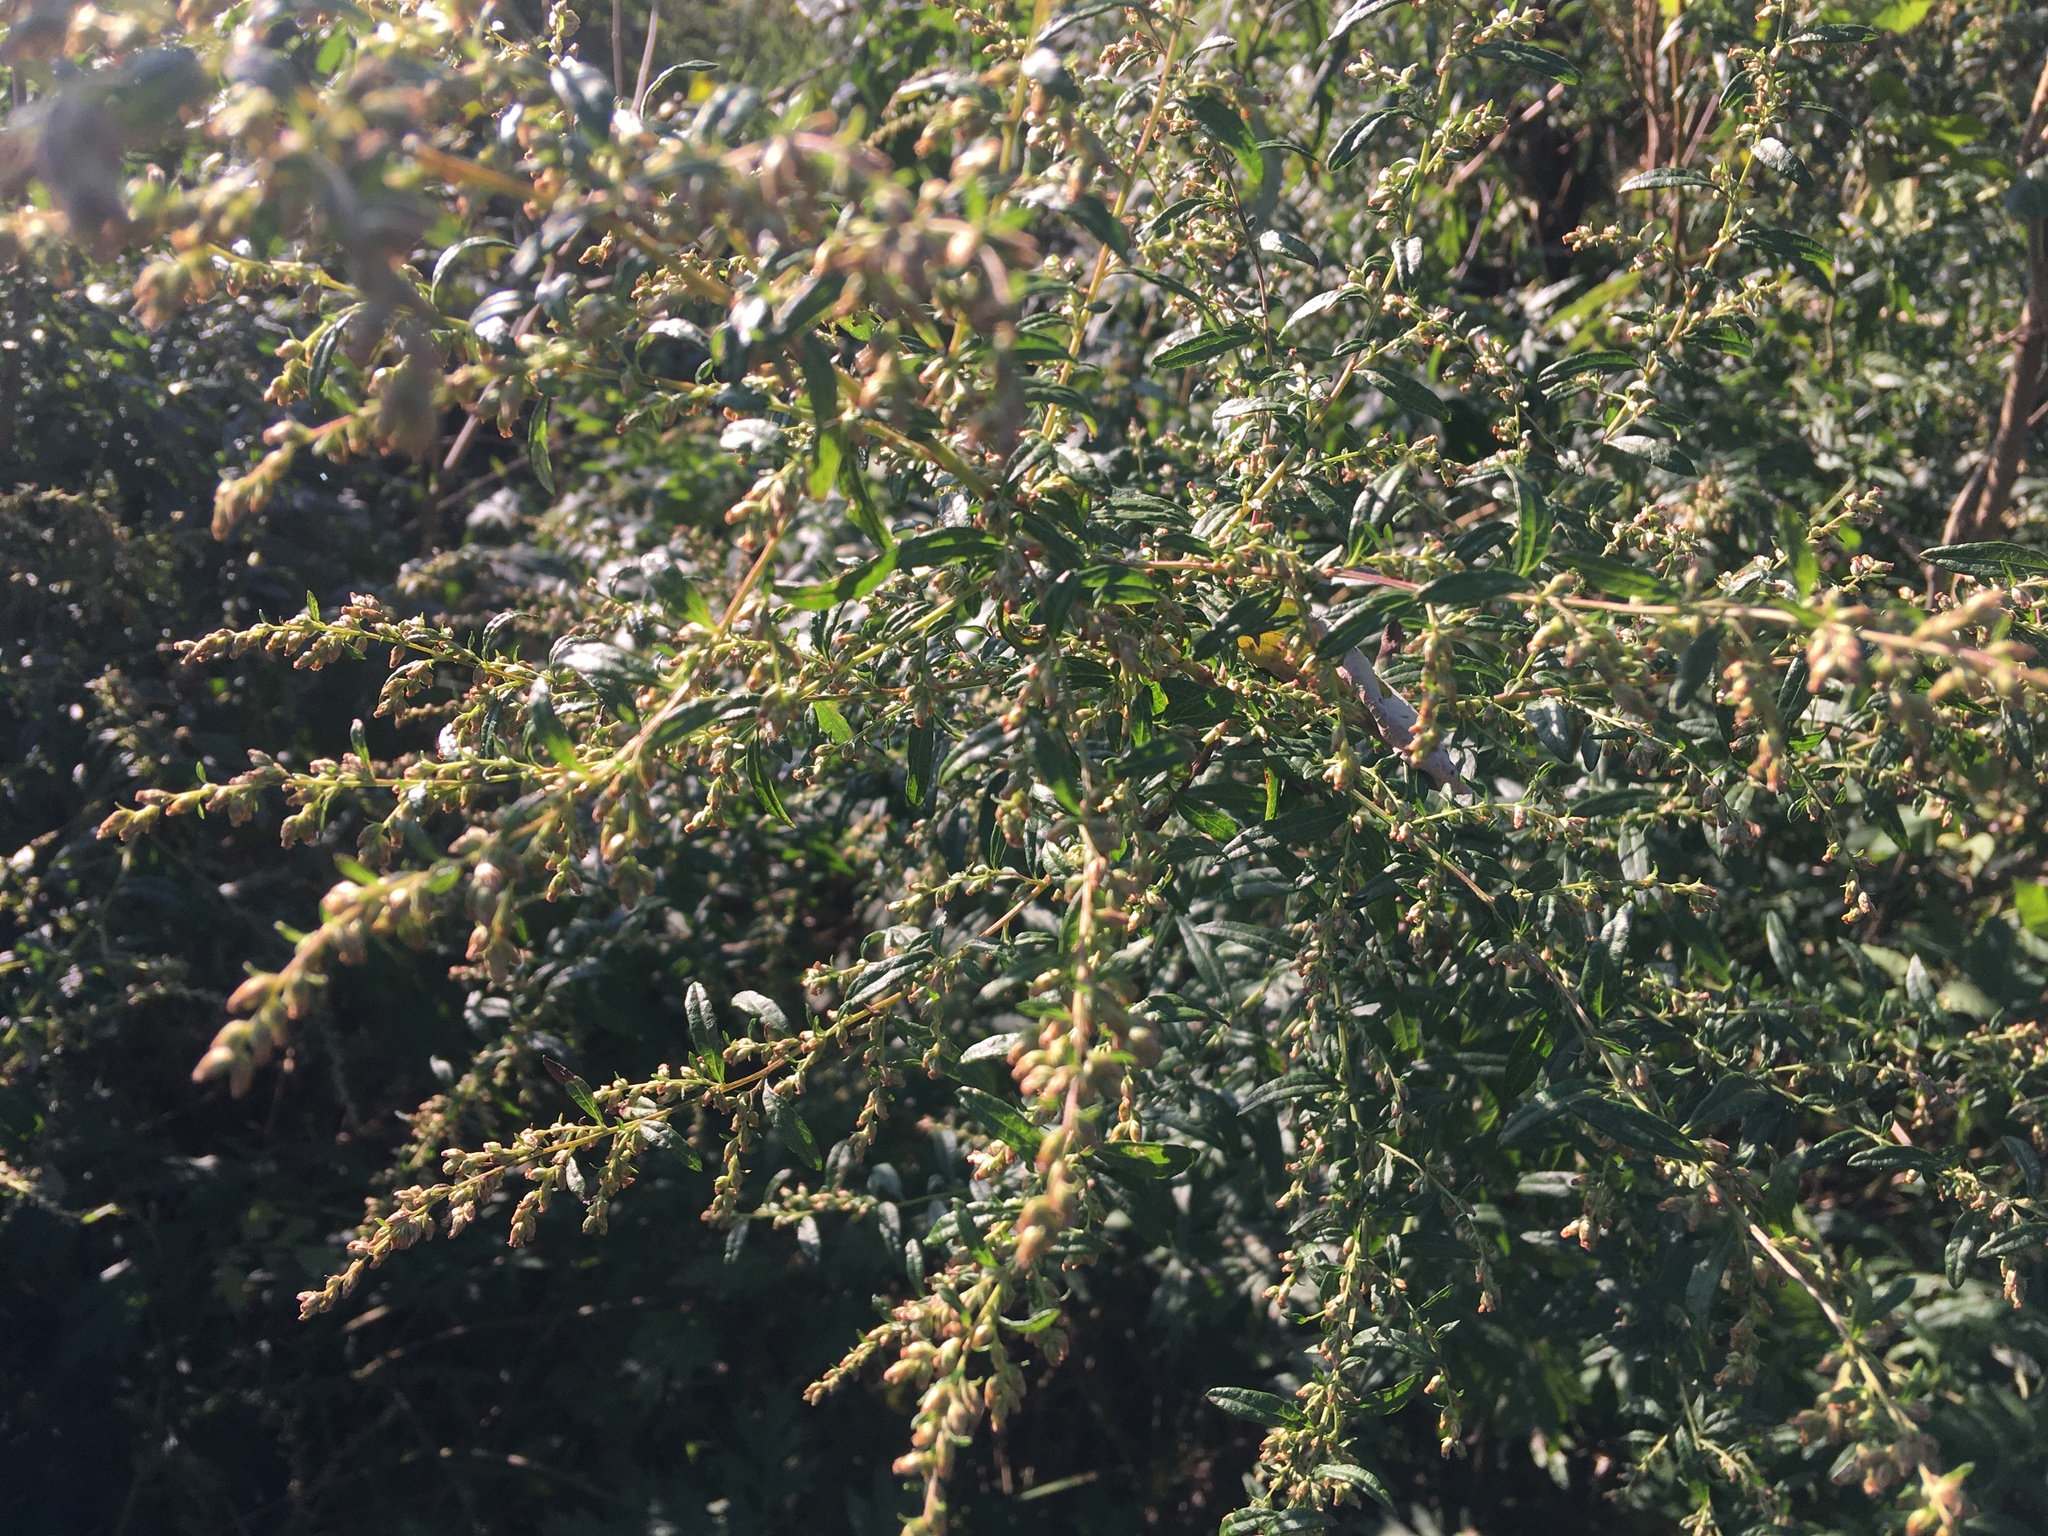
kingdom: Plantae
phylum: Tracheophyta
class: Magnoliopsida
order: Asterales
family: Asteraceae
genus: Artemisia
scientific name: Artemisia vulgaris
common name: Mugwort
